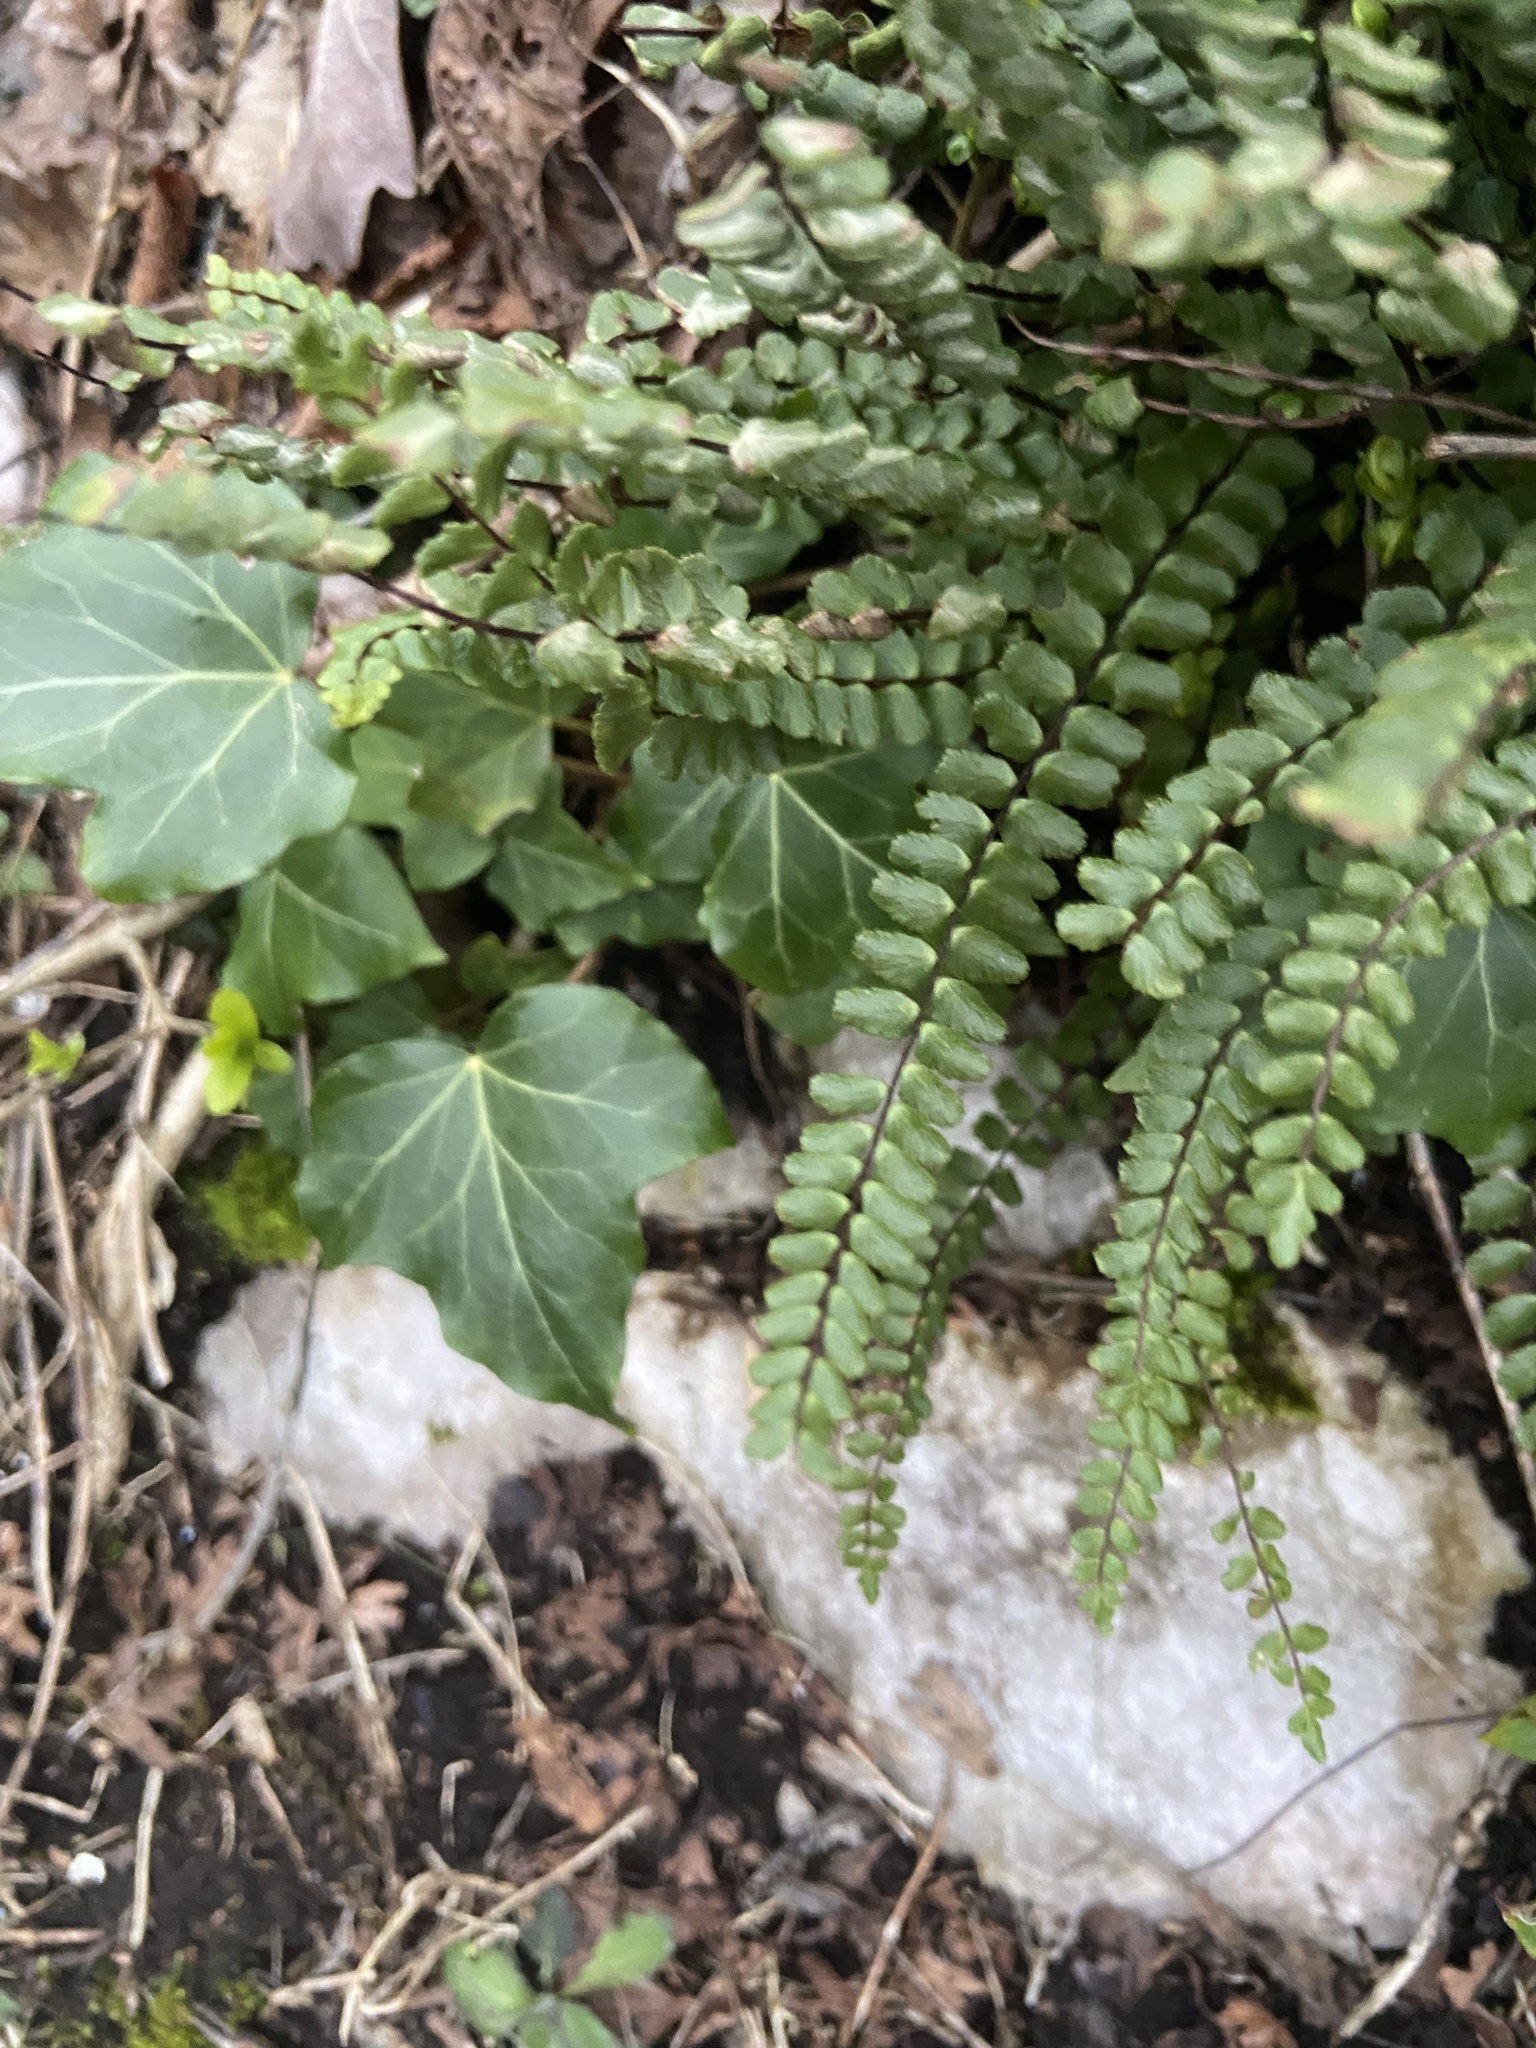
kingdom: Plantae
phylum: Tracheophyta
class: Polypodiopsida
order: Polypodiales
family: Aspleniaceae
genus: Asplenium
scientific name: Asplenium trichomanes
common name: Maidenhair spleenwort
